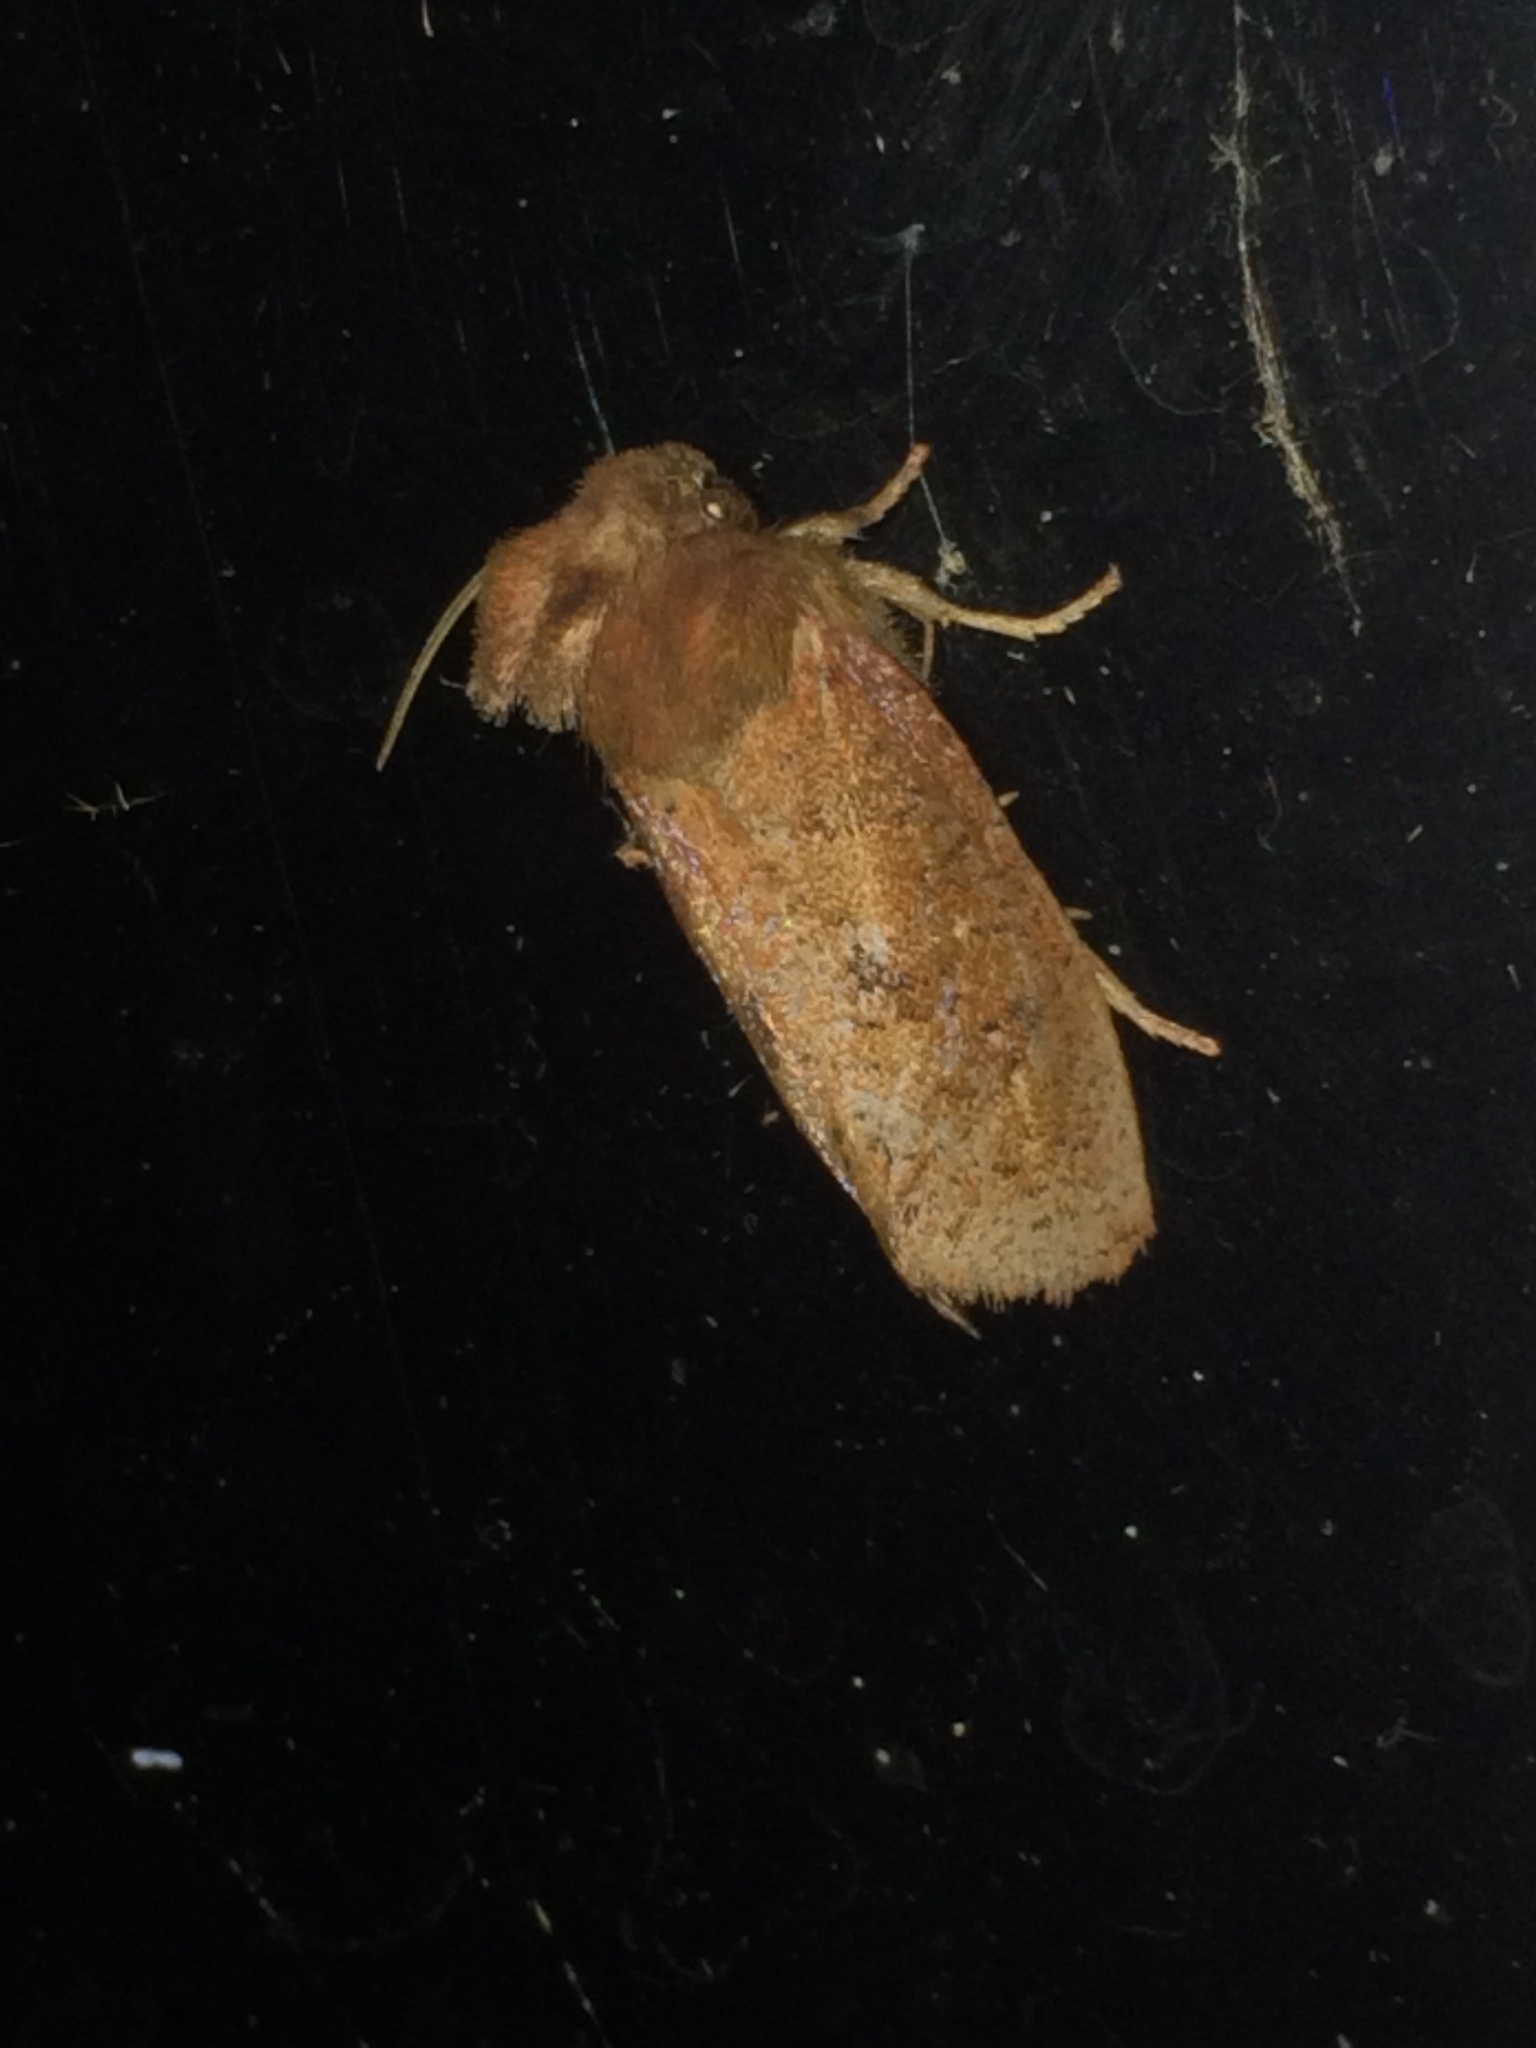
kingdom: Animalia
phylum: Arthropoda
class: Insecta
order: Lepidoptera
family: Tineidae
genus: Acrolophus
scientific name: Acrolophus plumifrontella
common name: Eastern grass tubeworm moth
